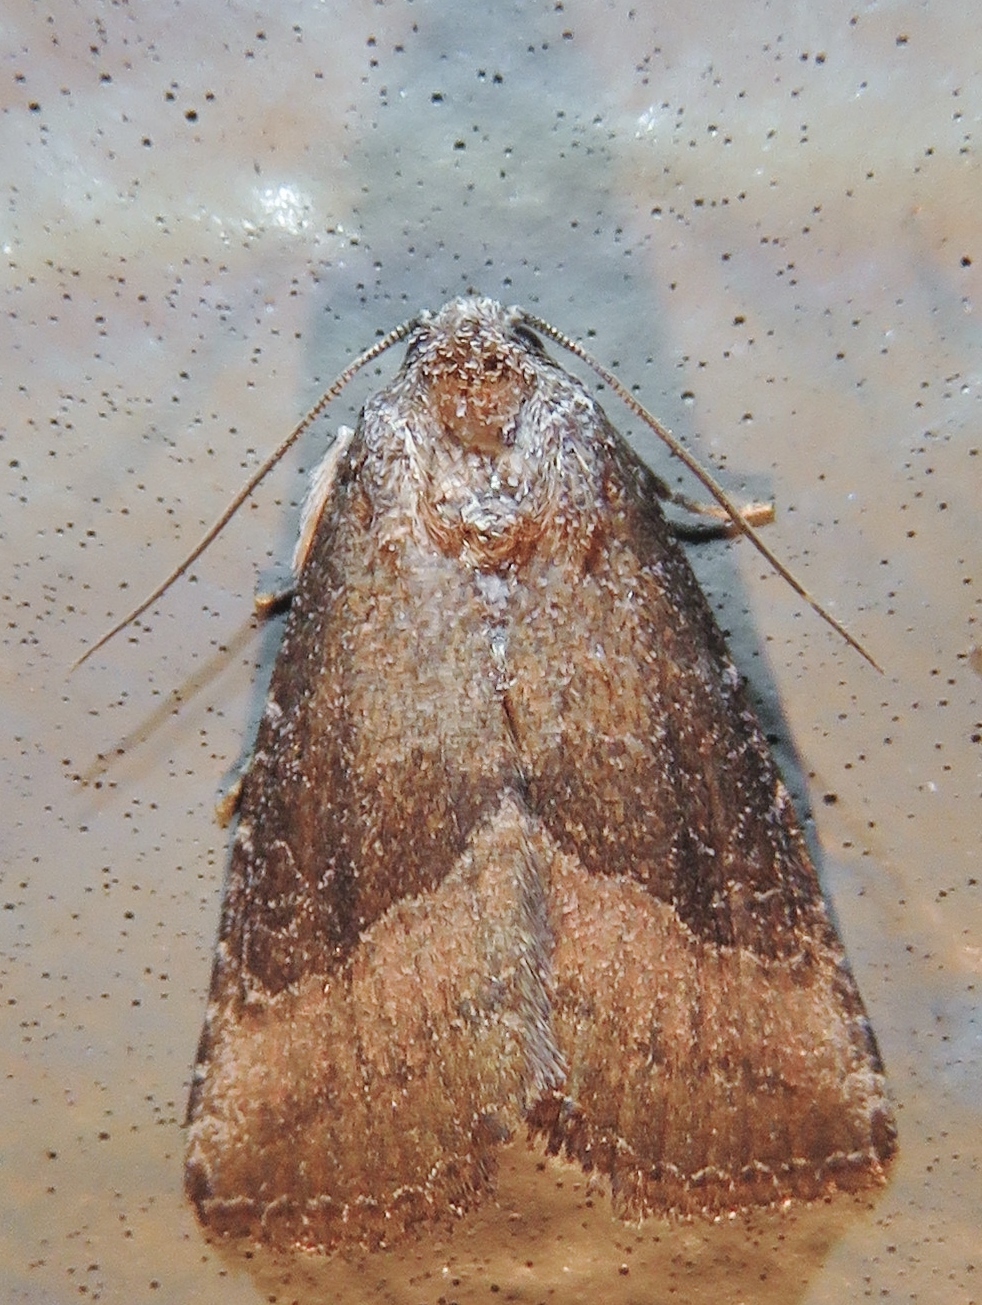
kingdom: Animalia
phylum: Arthropoda
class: Insecta
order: Lepidoptera
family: Noctuidae
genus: Ogdoconta
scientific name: Ogdoconta cinereola
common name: Common pinkband
